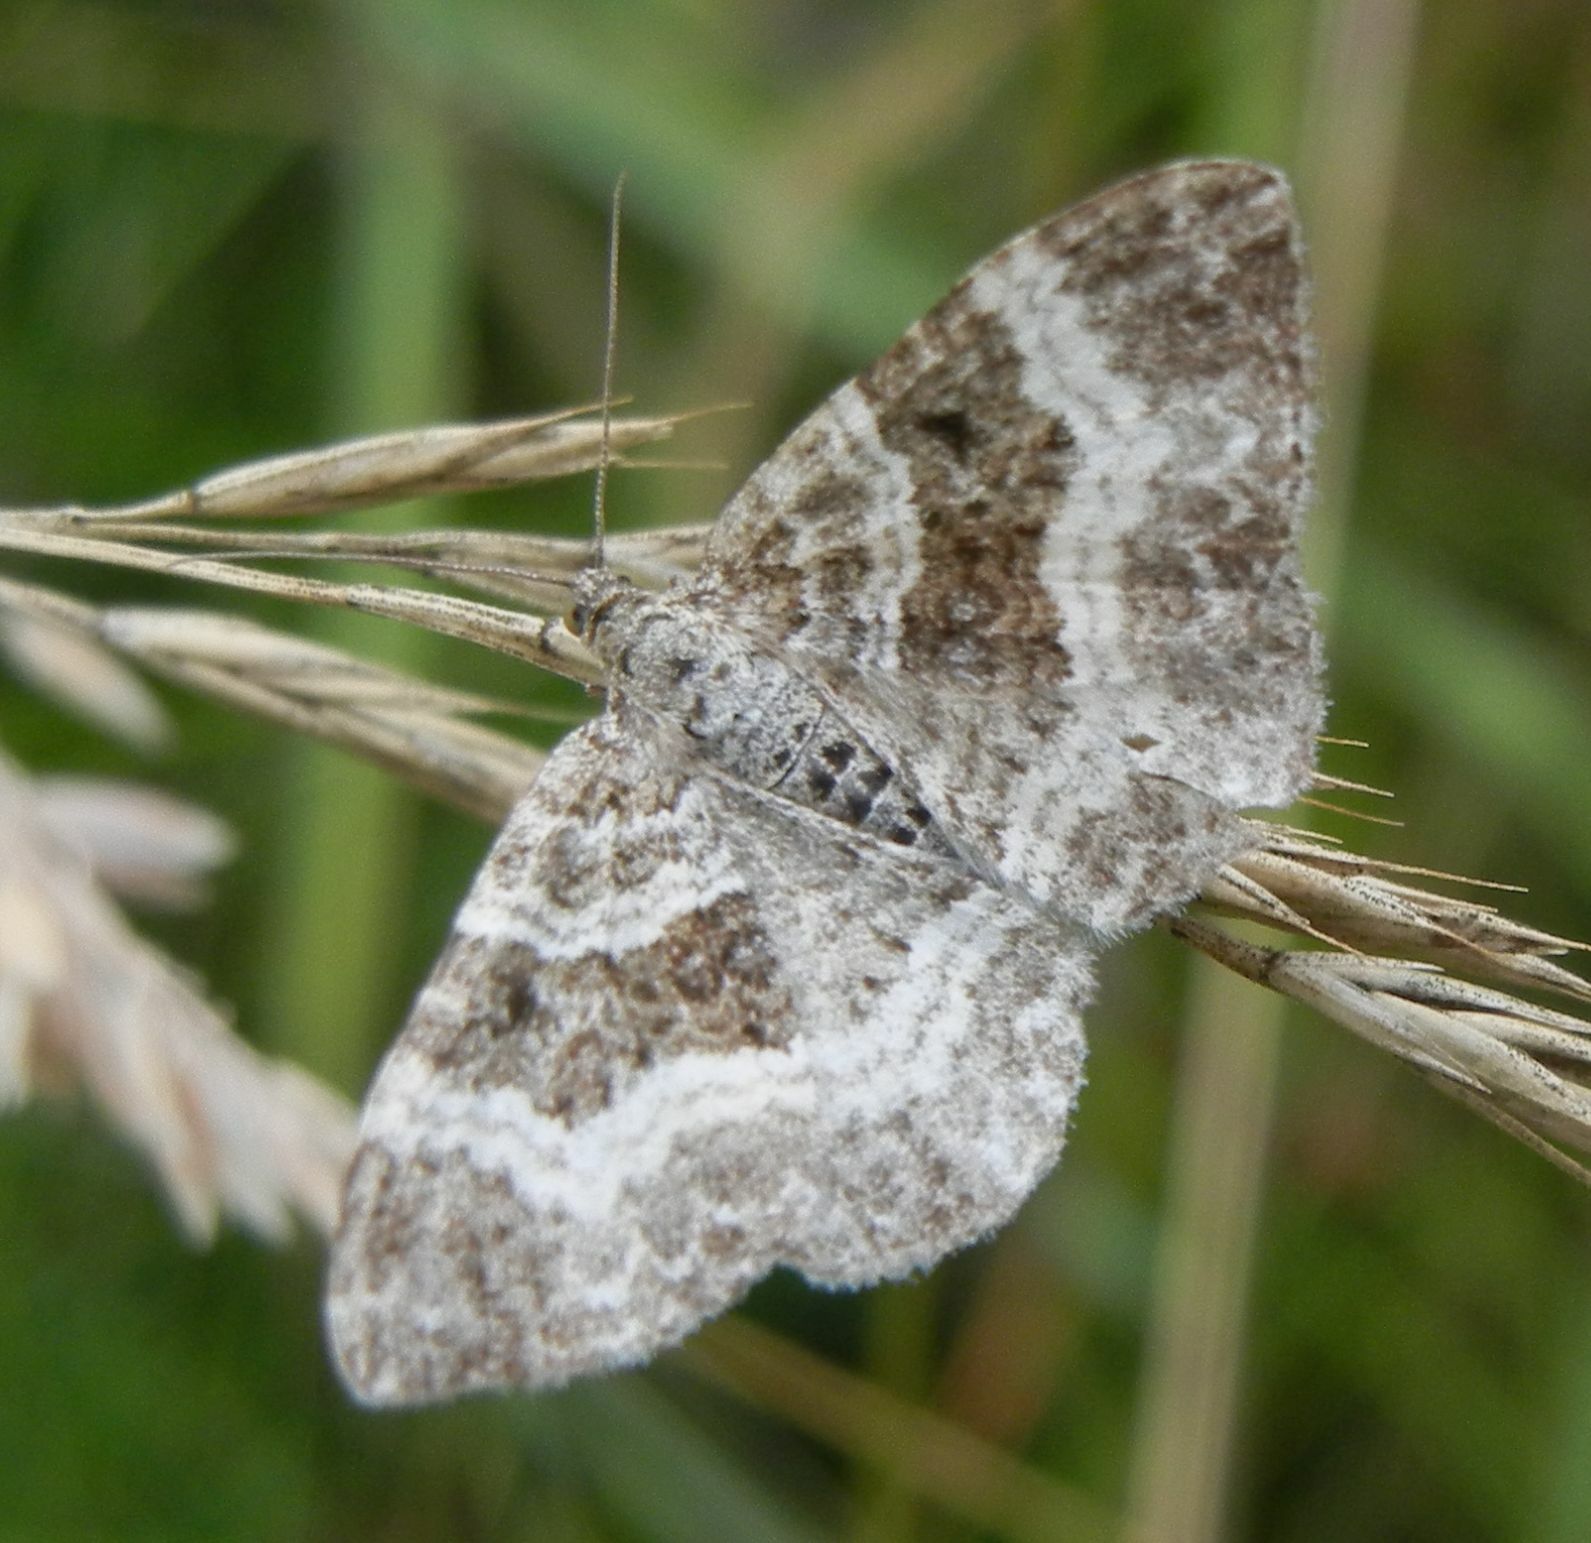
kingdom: Animalia
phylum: Arthropoda
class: Insecta
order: Lepidoptera
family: Geometridae
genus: Epirrhoe
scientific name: Epirrhoe alternata
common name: Common carpet
